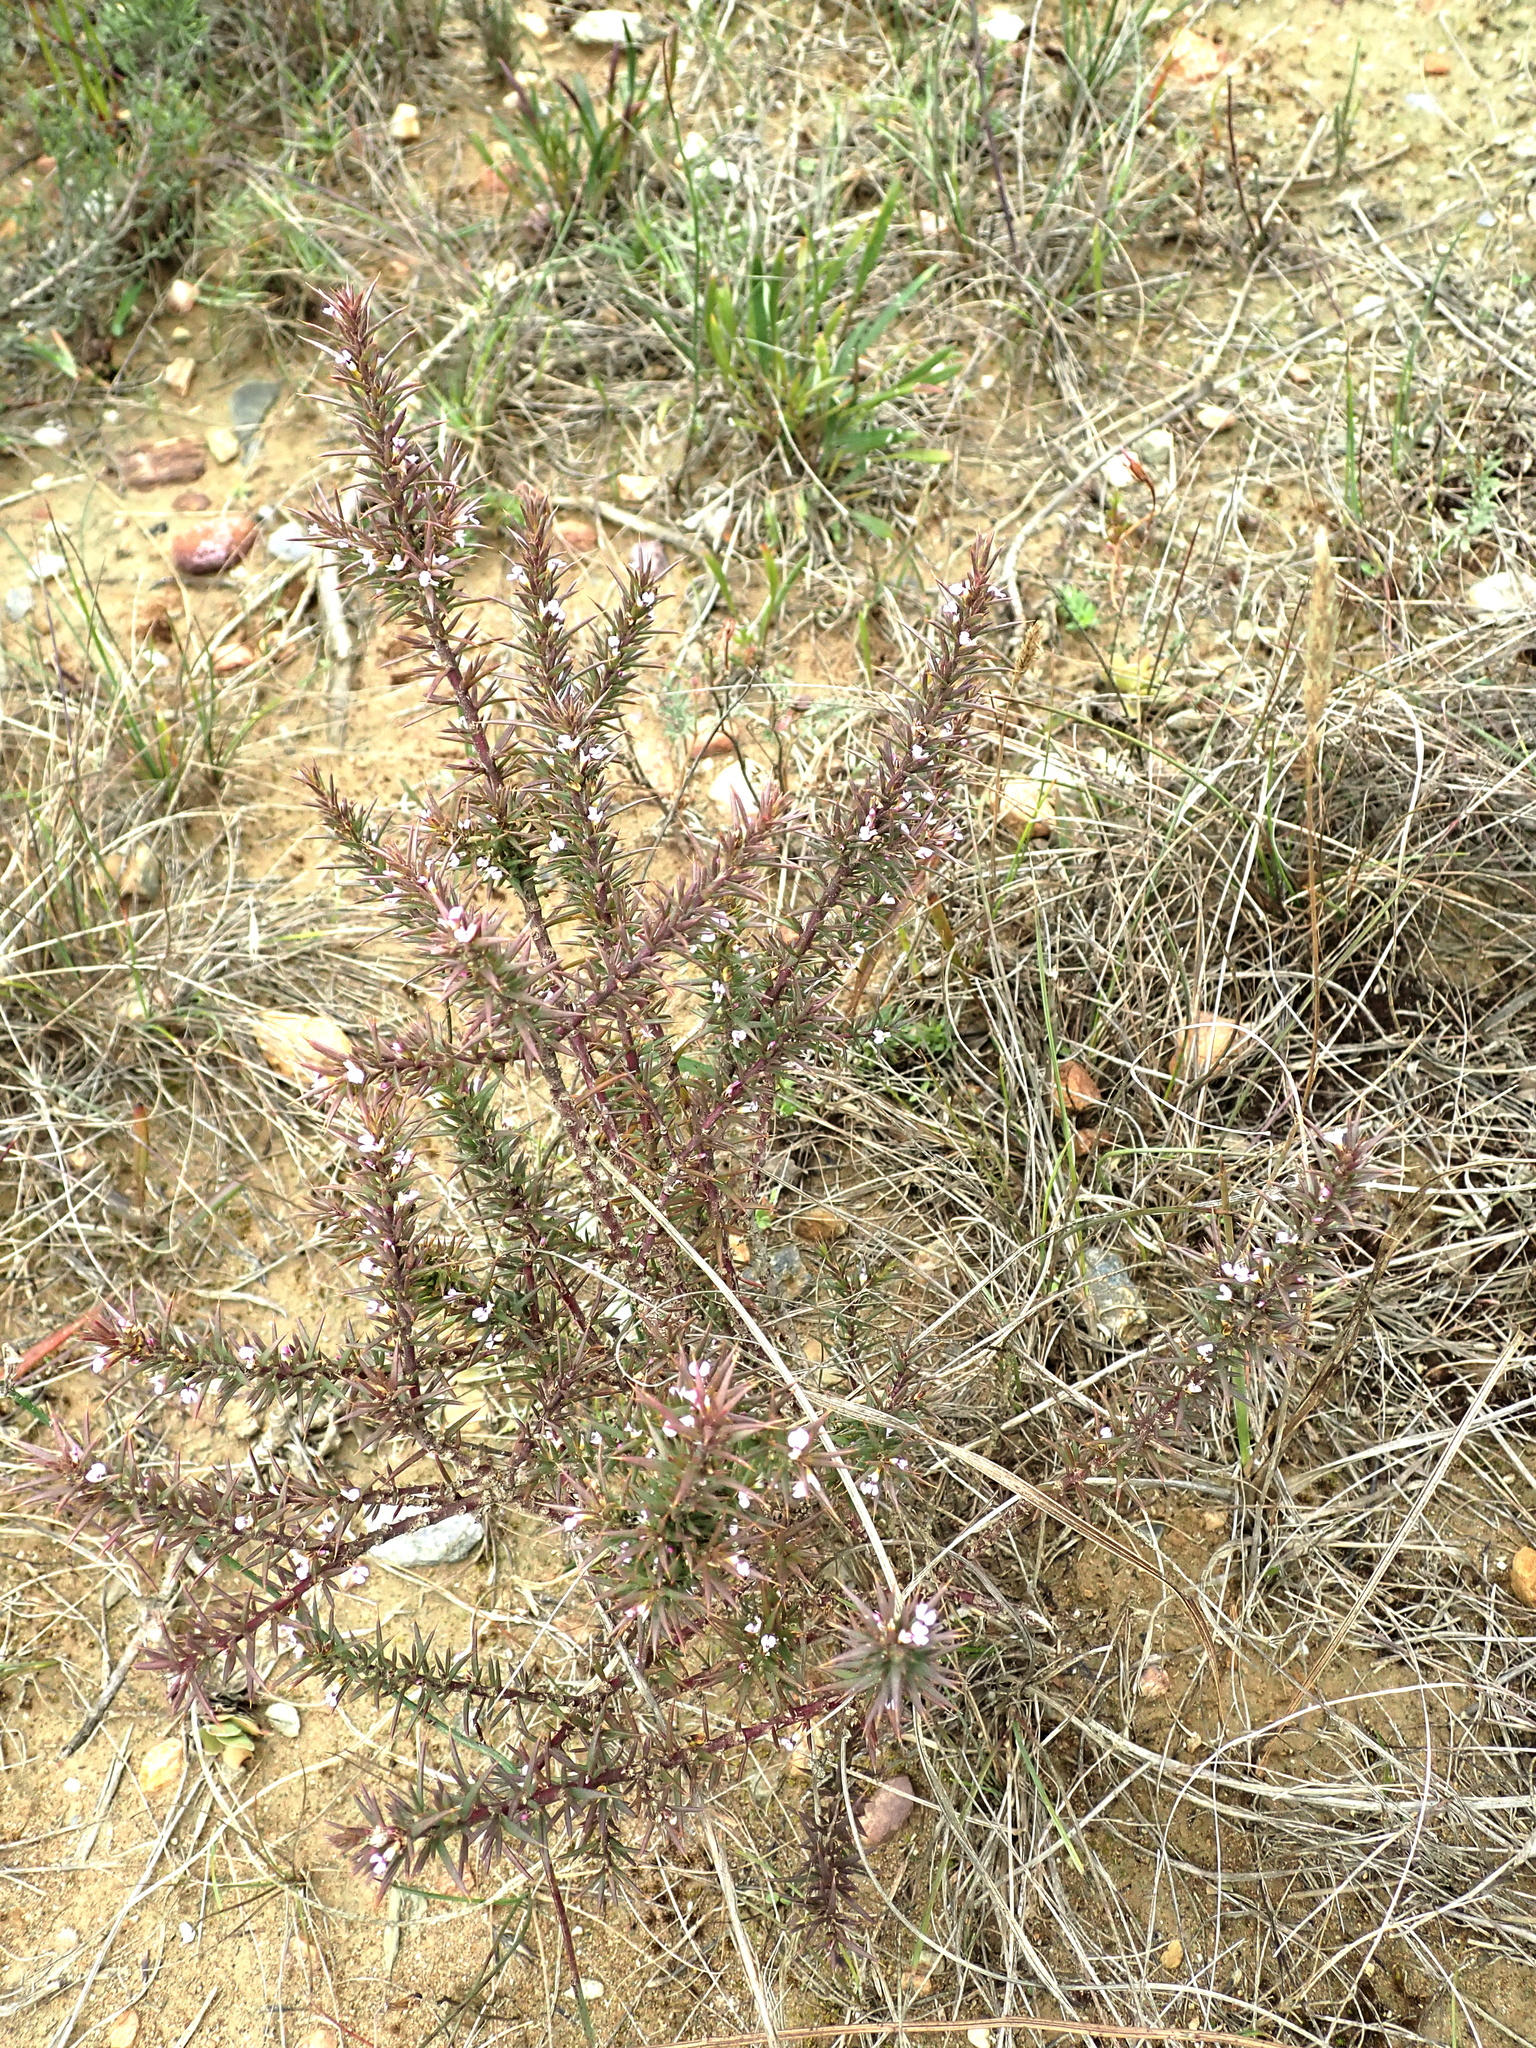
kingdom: Plantae
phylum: Tracheophyta
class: Magnoliopsida
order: Fabales
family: Polygalaceae
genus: Muraltia
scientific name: Muraltia pungens
